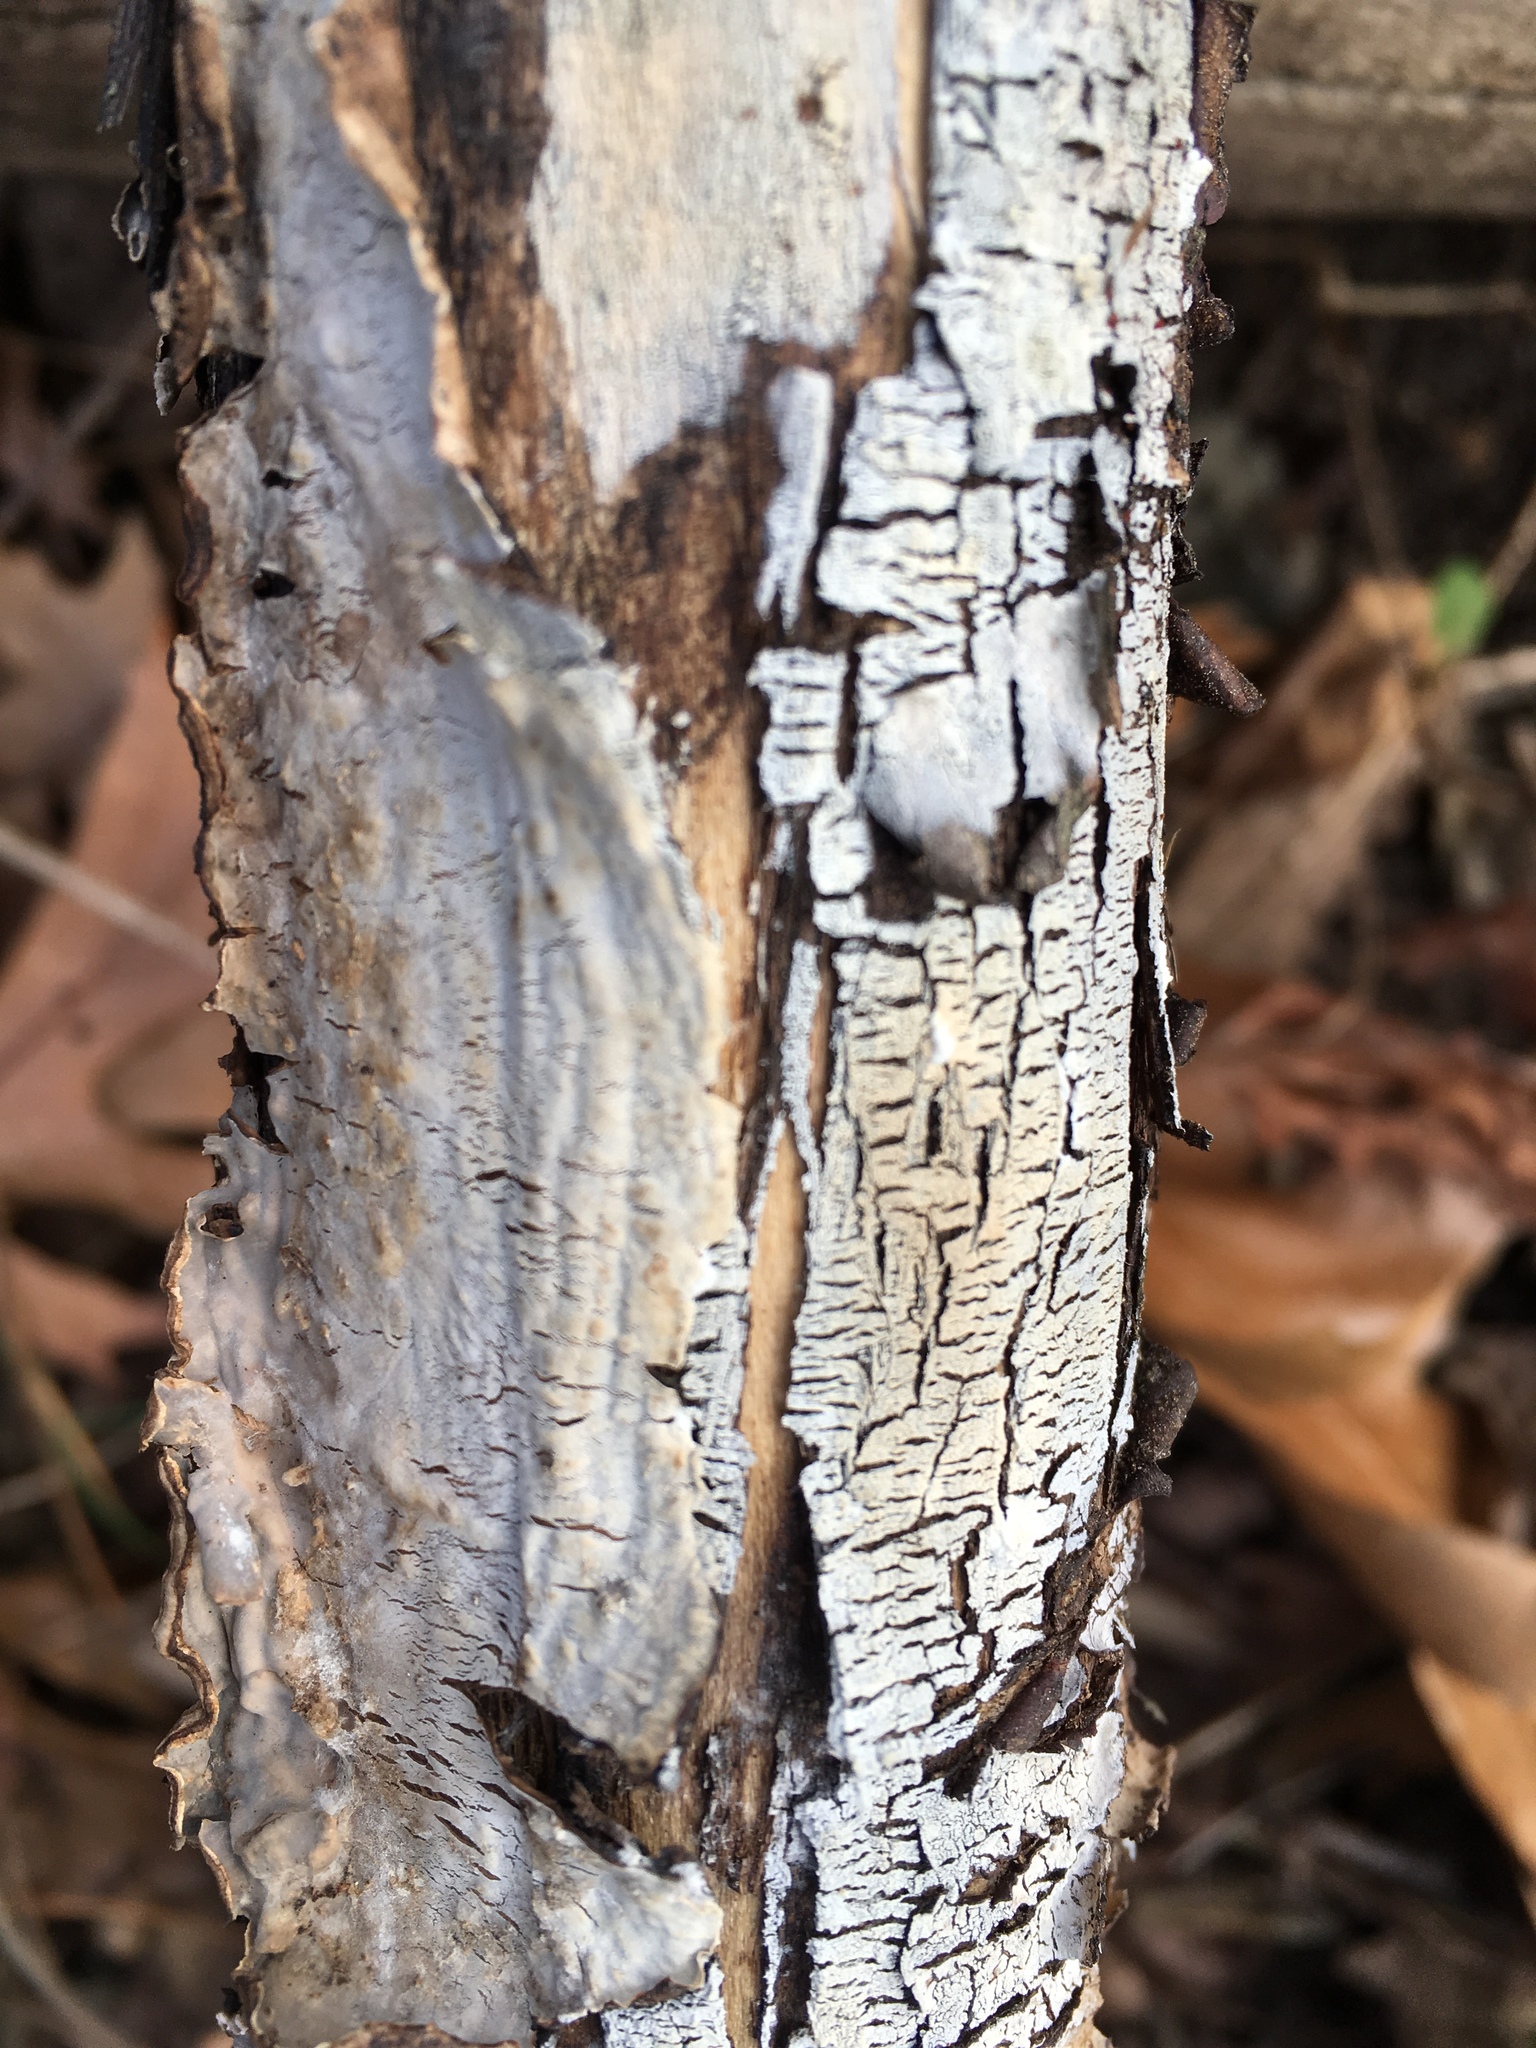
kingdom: Fungi
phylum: Basidiomycota
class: Agaricomycetes
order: Russulales
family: Peniophoraceae
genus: Peniophora
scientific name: Peniophora cinerea
